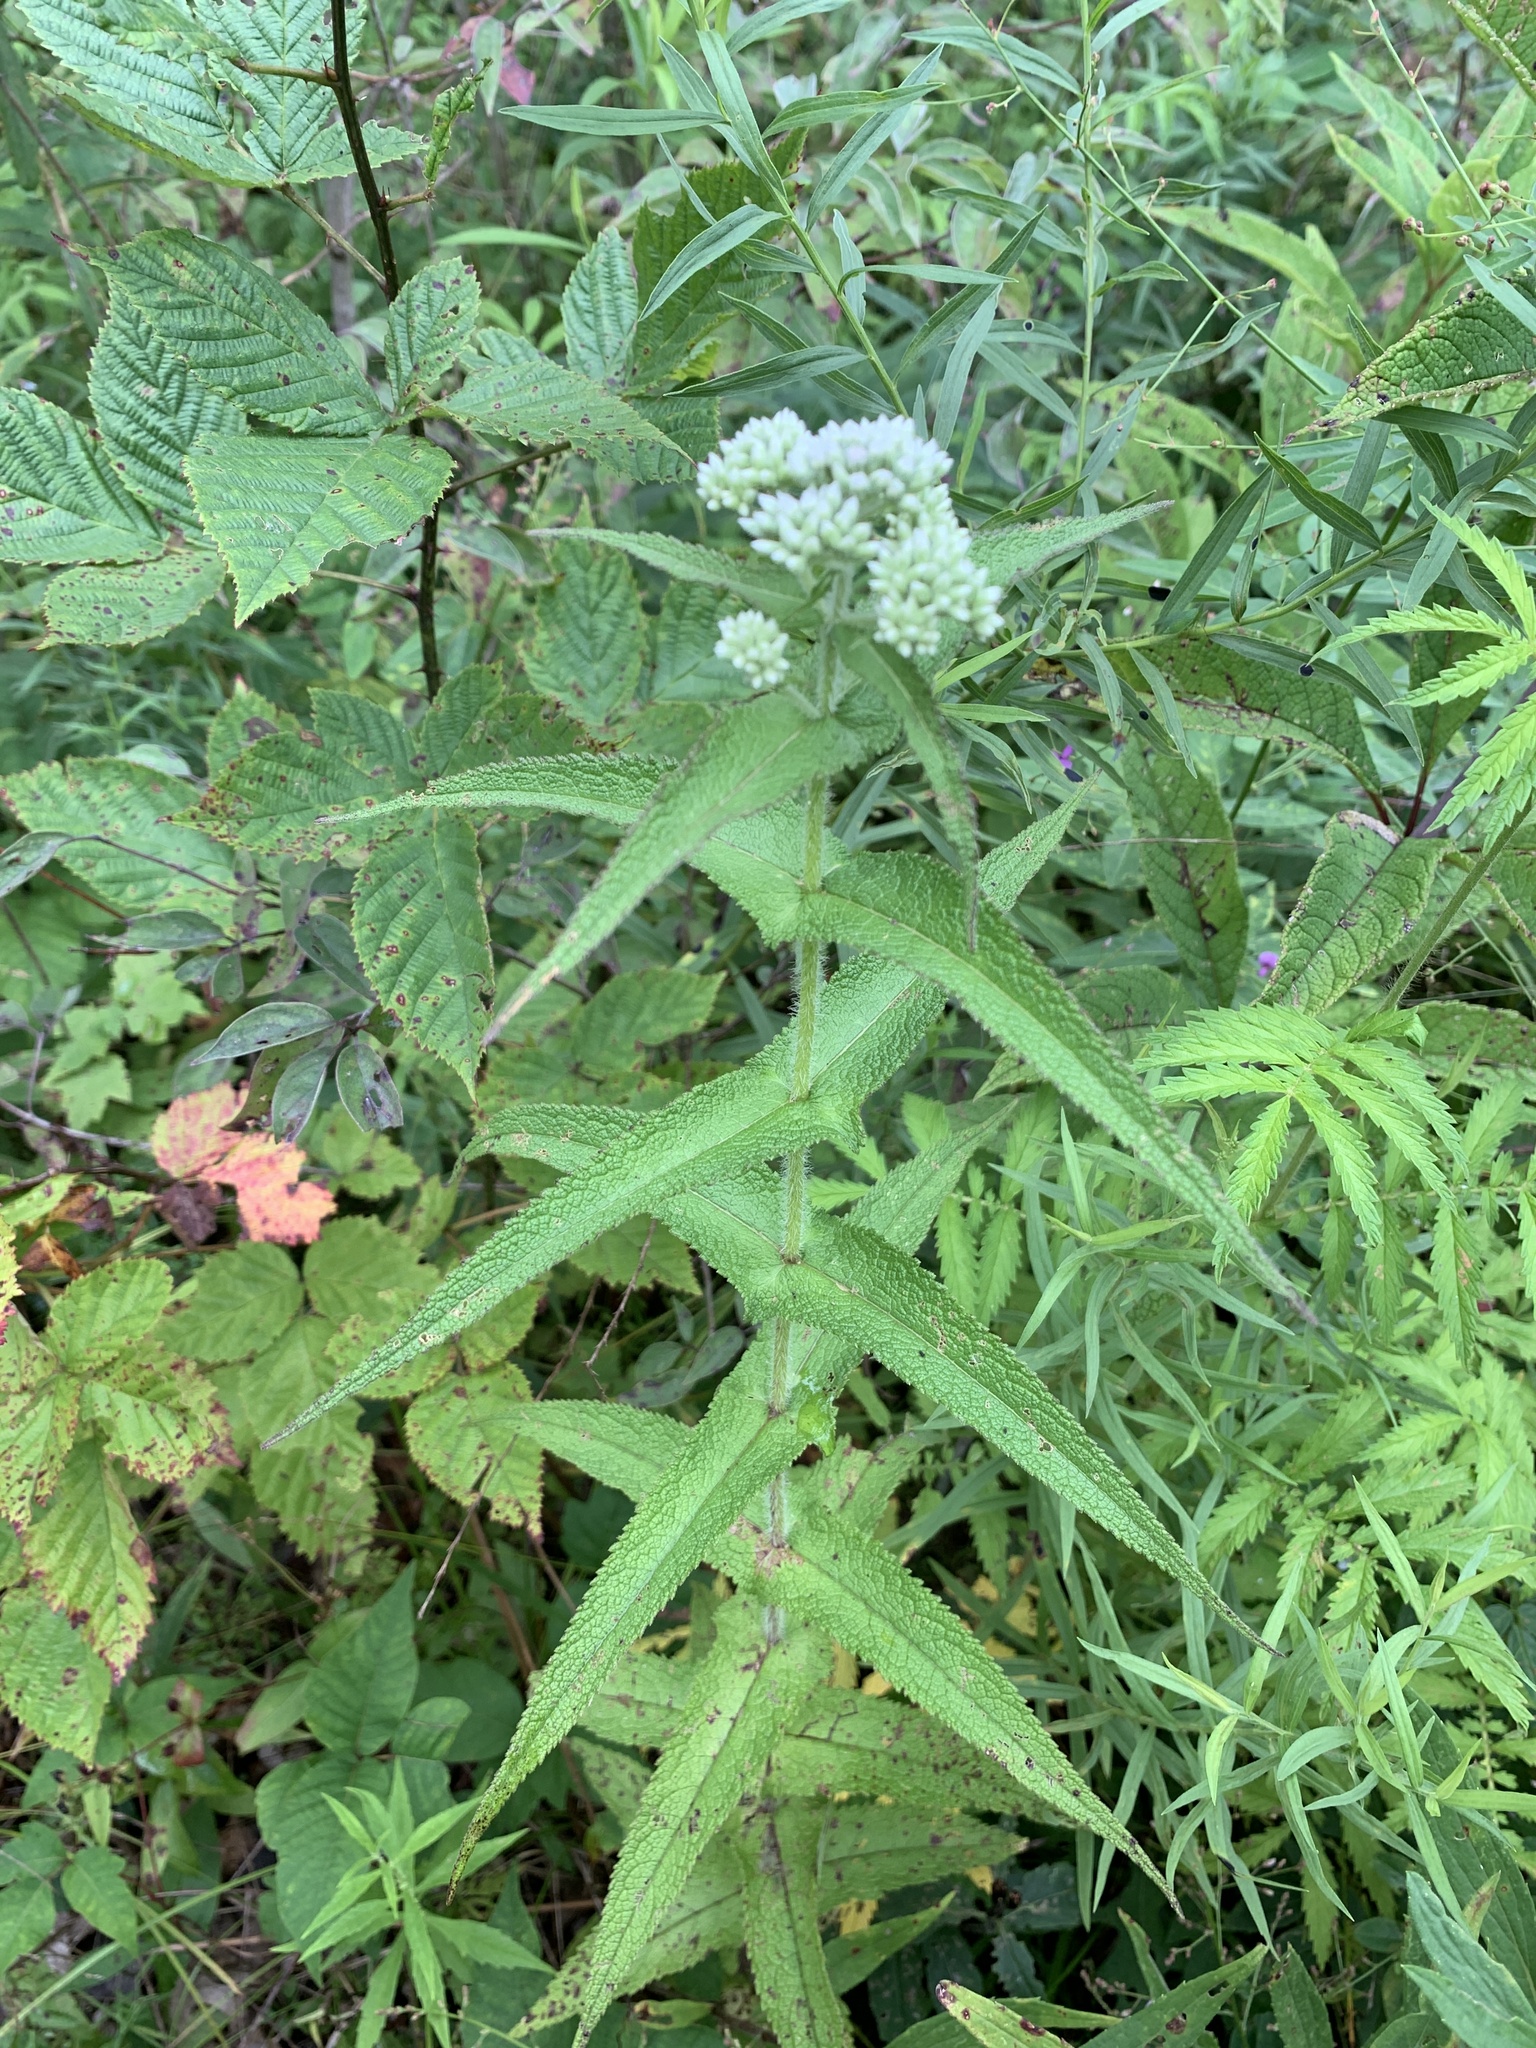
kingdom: Plantae
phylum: Tracheophyta
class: Magnoliopsida
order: Asterales
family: Asteraceae
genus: Eupatorium
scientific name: Eupatorium perfoliatum
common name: Boneset
